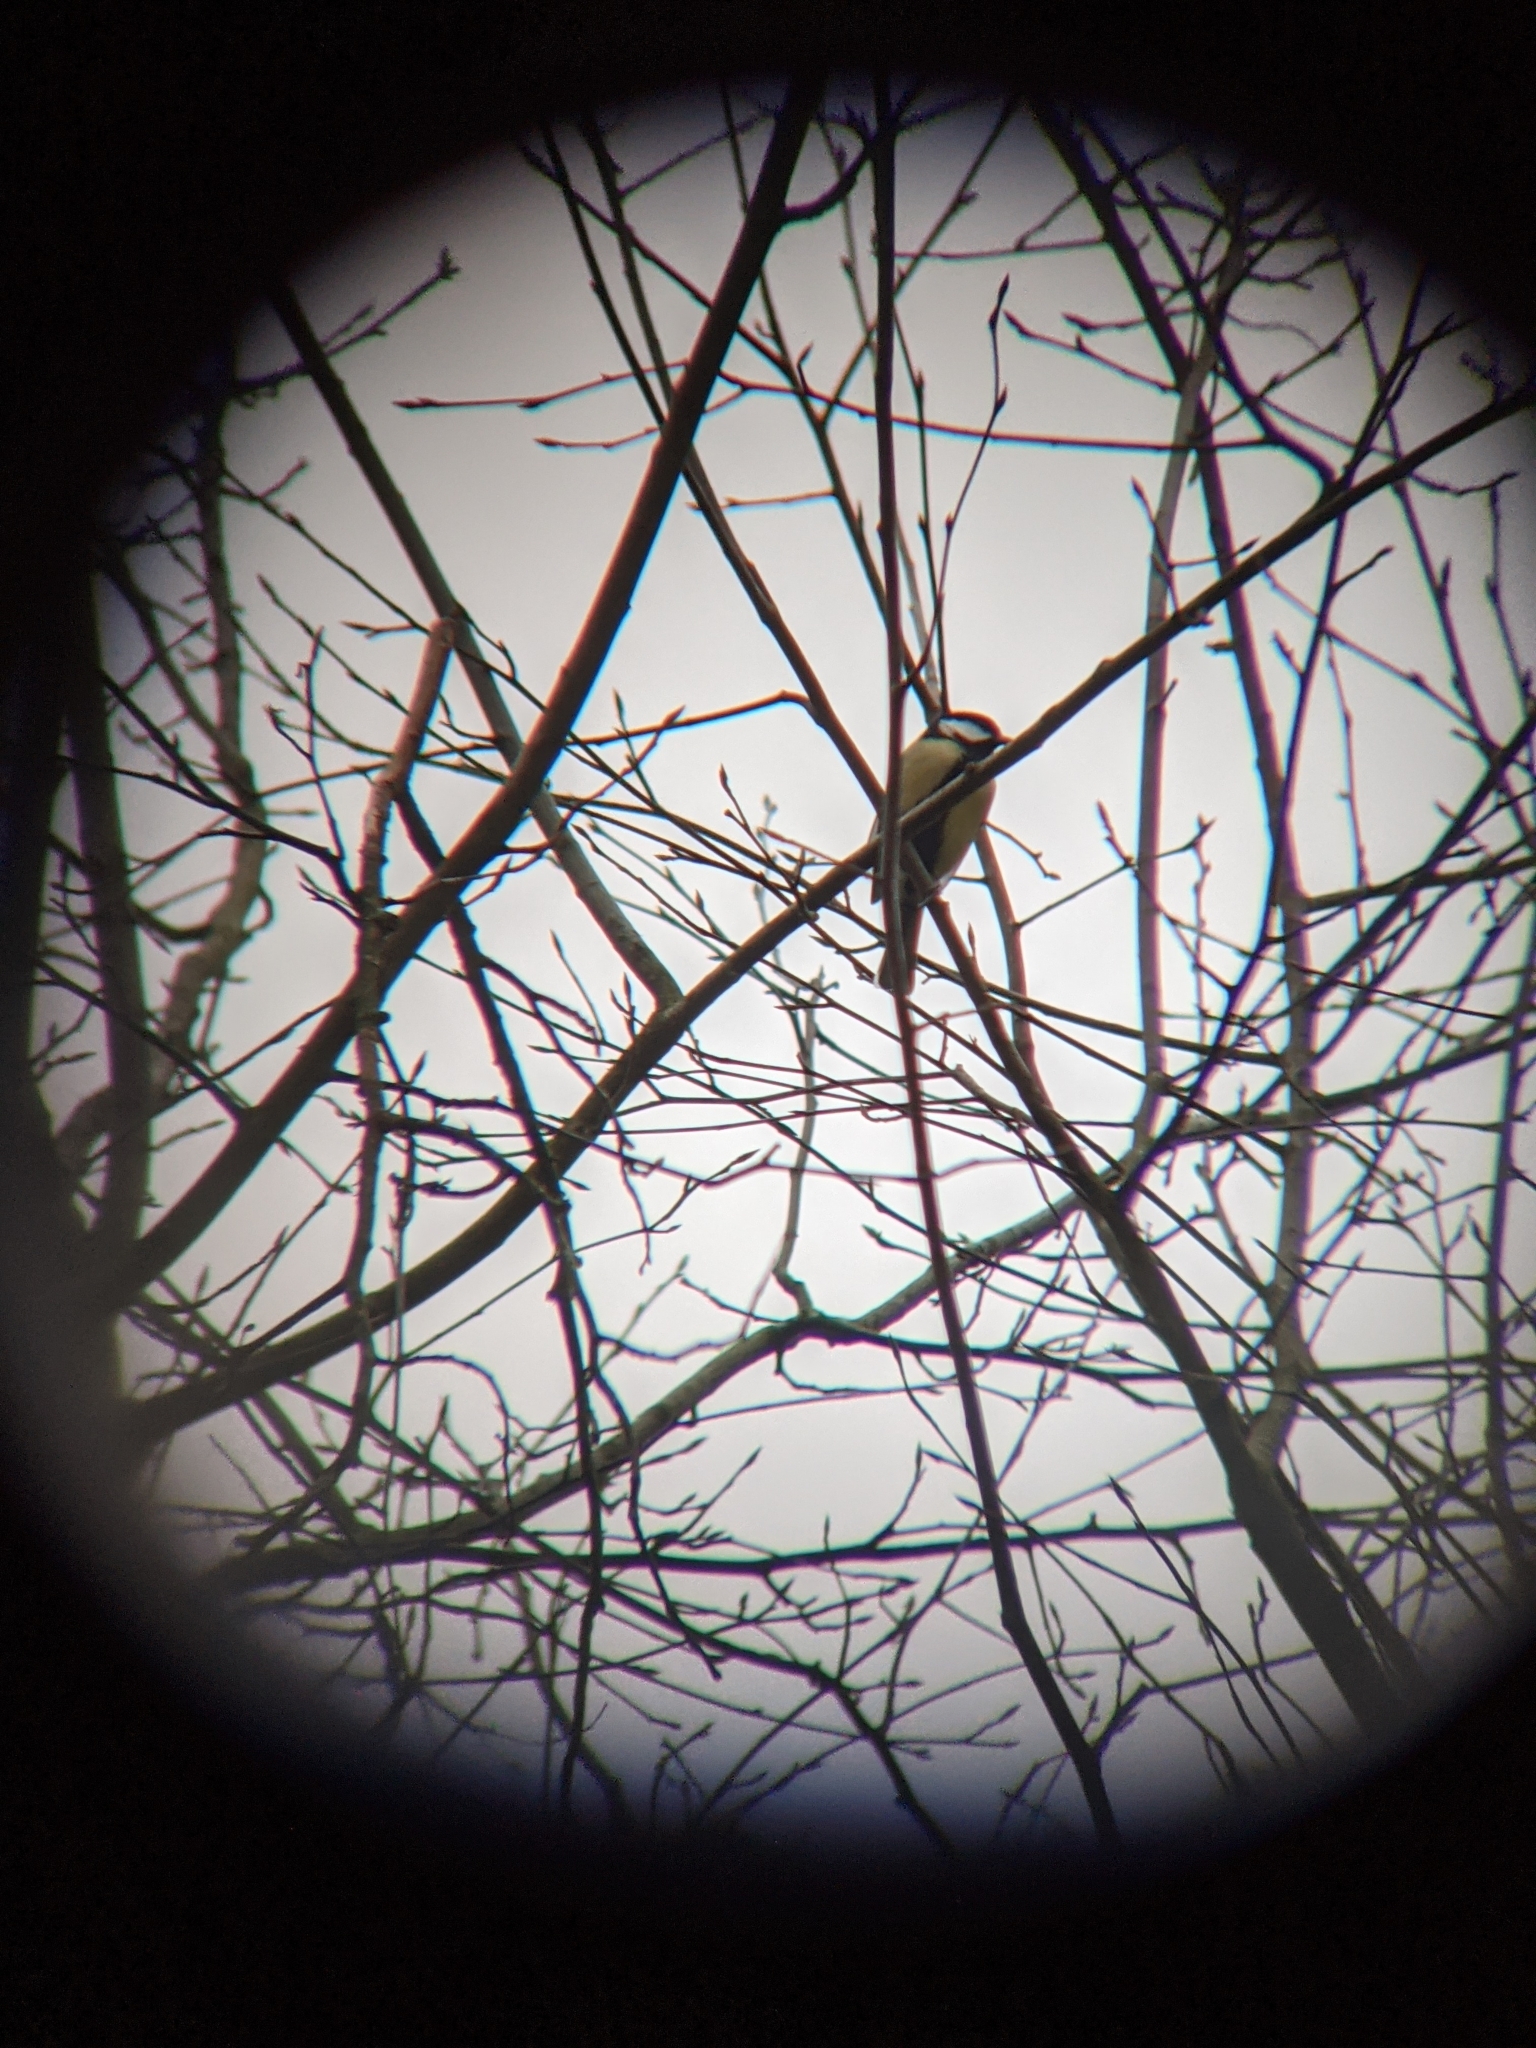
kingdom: Animalia
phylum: Chordata
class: Aves
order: Passeriformes
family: Paridae
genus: Parus
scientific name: Parus major
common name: Great tit
